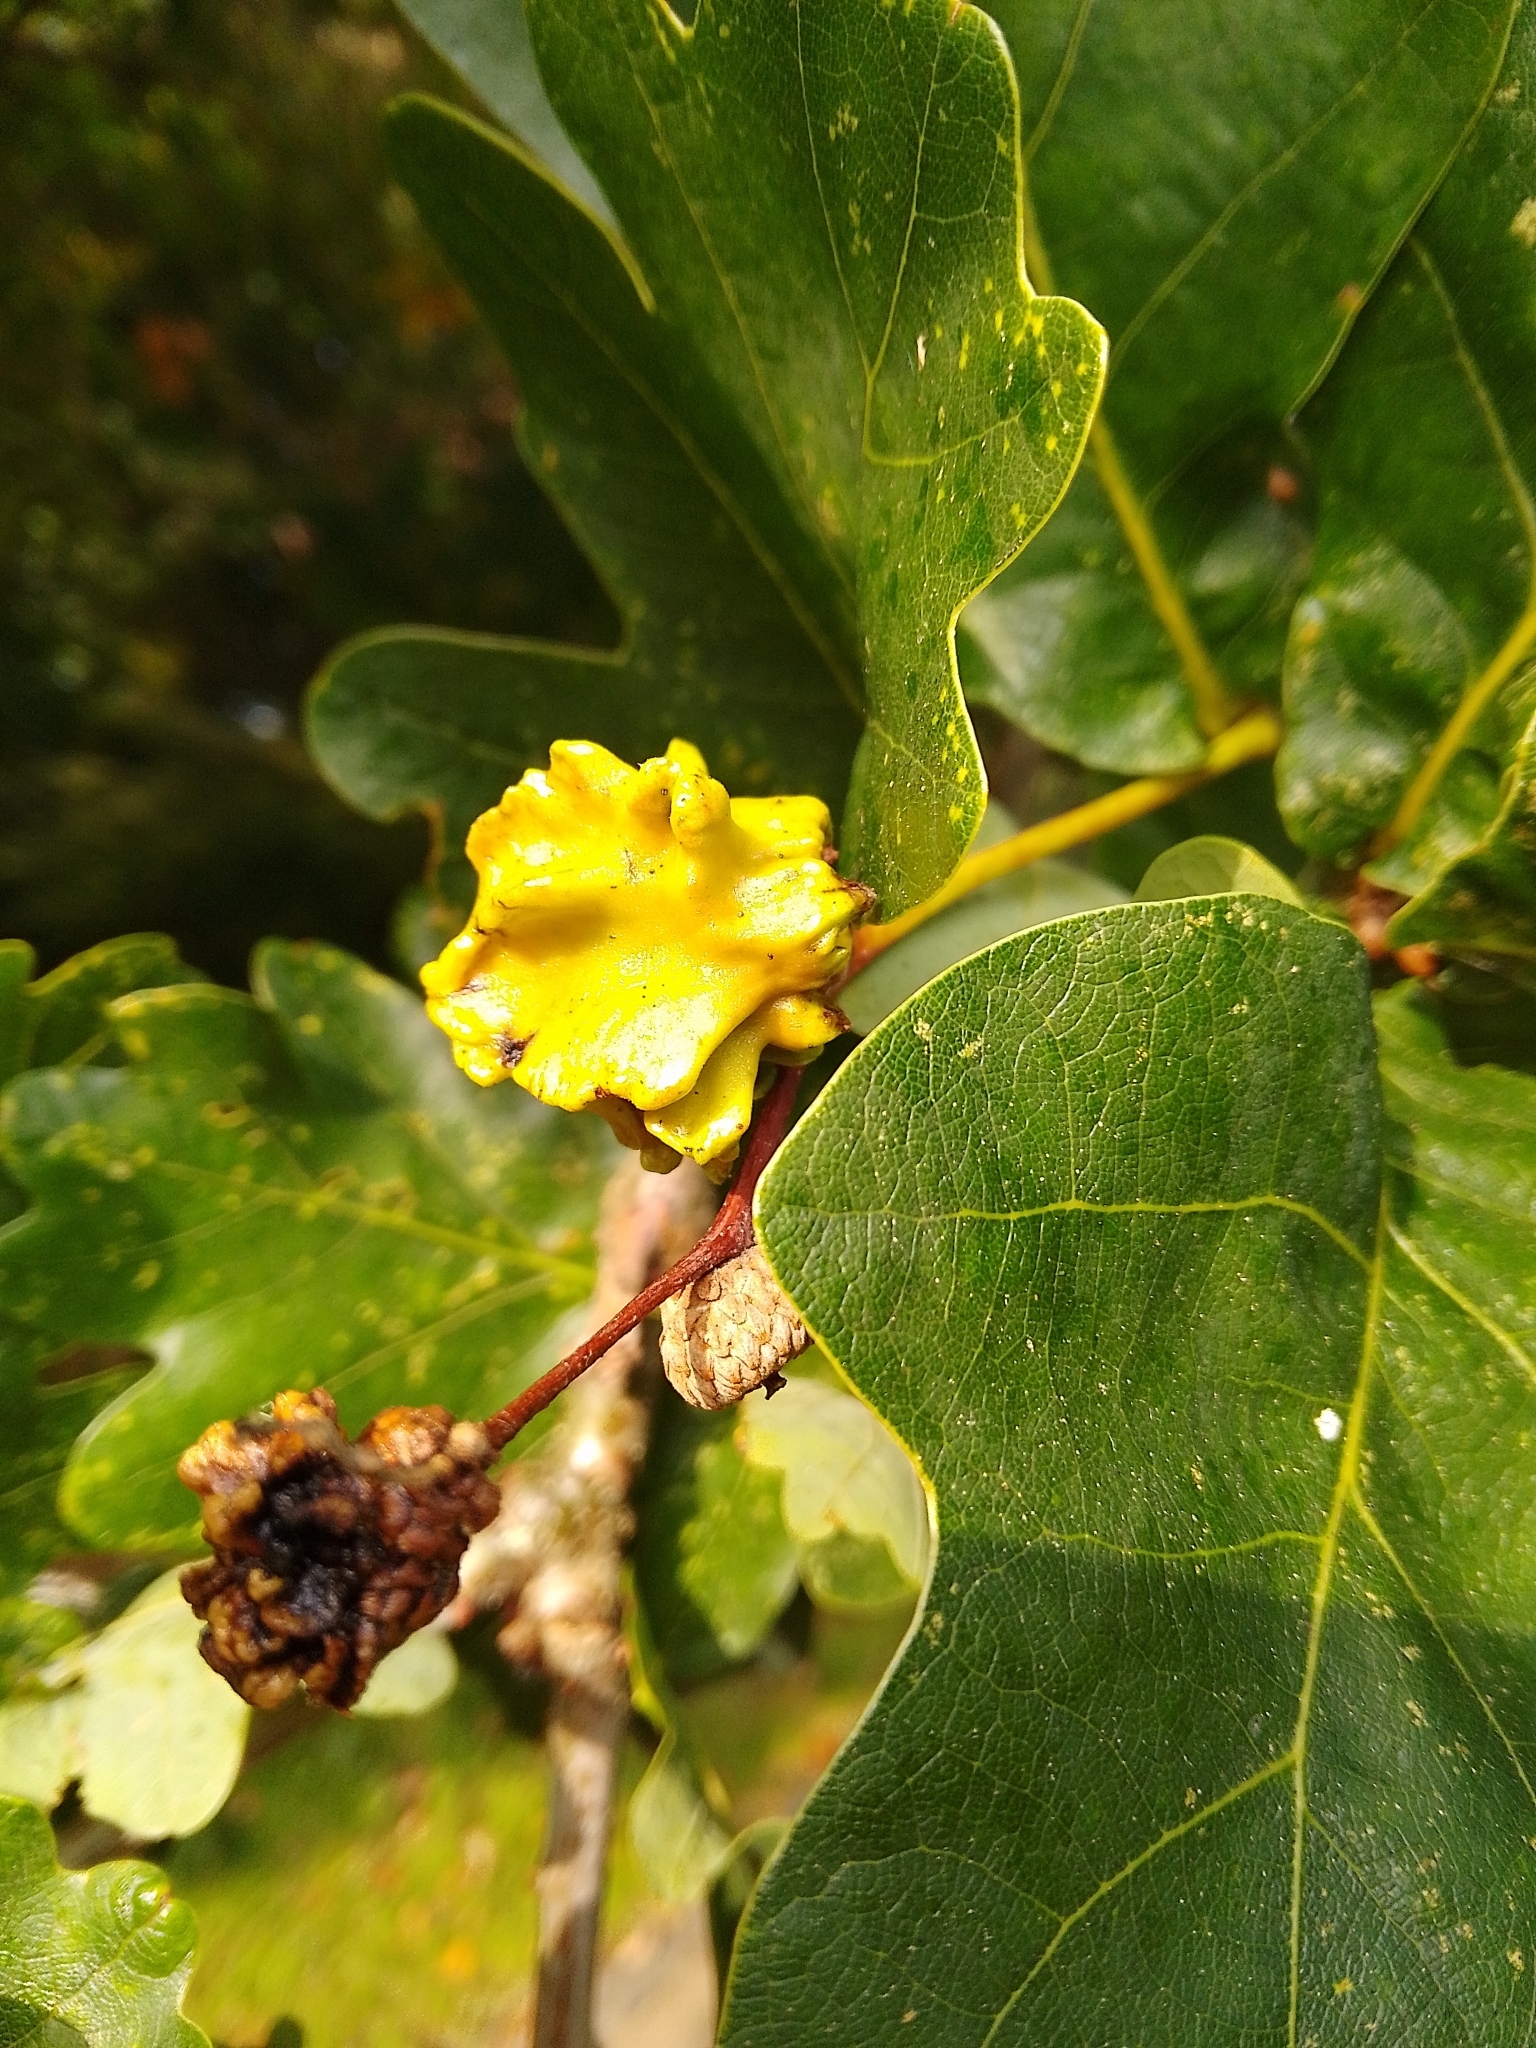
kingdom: Animalia
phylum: Arthropoda
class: Insecta
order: Hymenoptera
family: Cynipidae
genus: Andricus
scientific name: Andricus quercuscalicis
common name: Knopper gall
